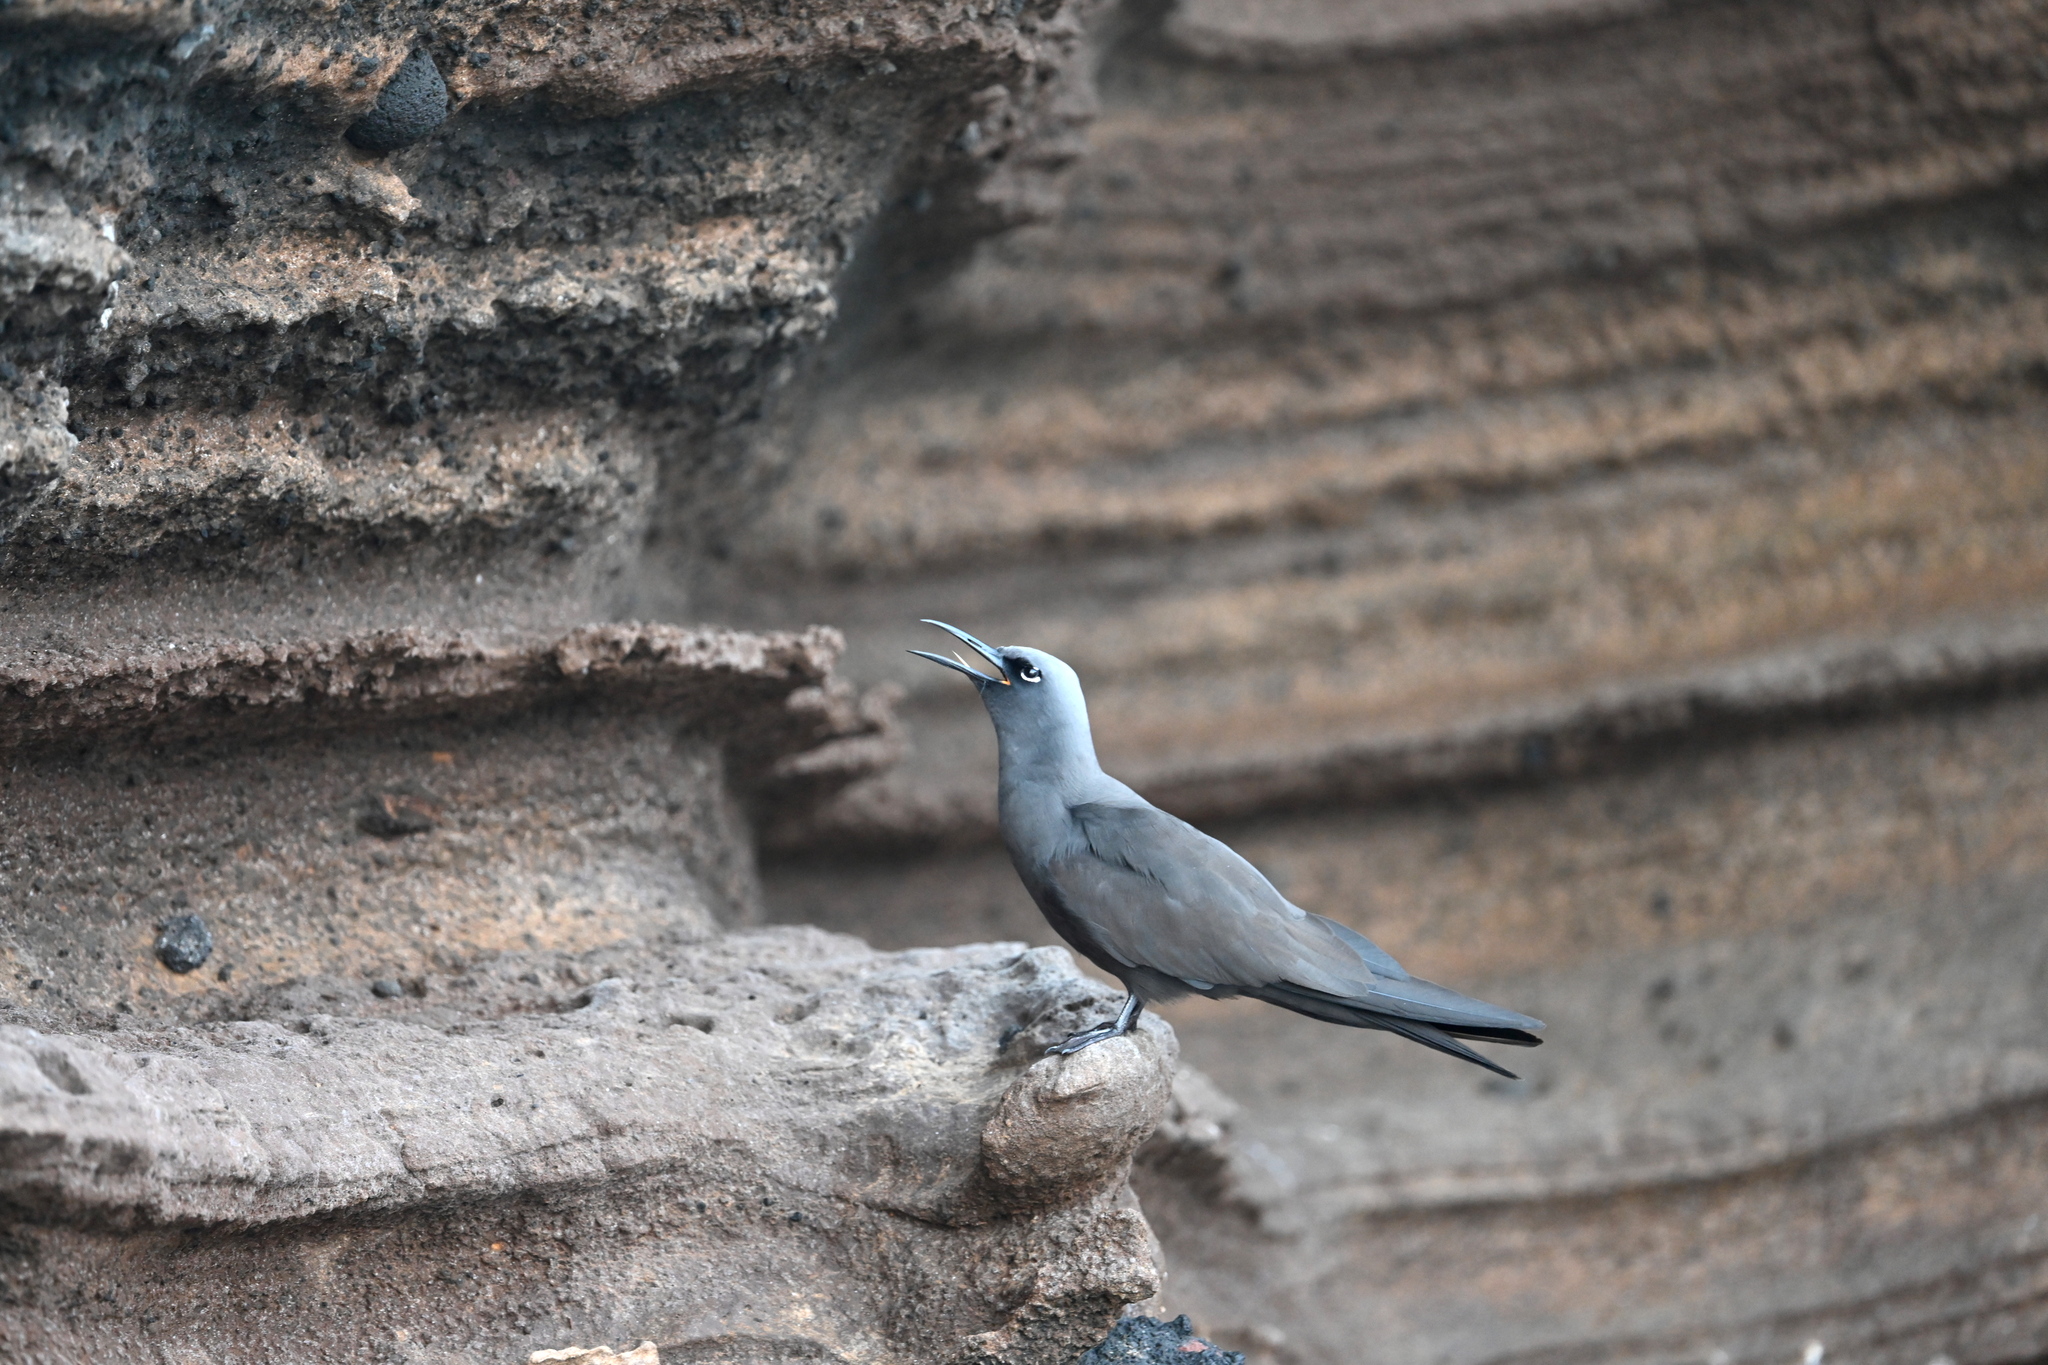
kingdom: Animalia
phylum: Chordata
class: Aves
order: Charadriiformes
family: Laridae
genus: Anous
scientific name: Anous stolidus
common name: Brown noddy
